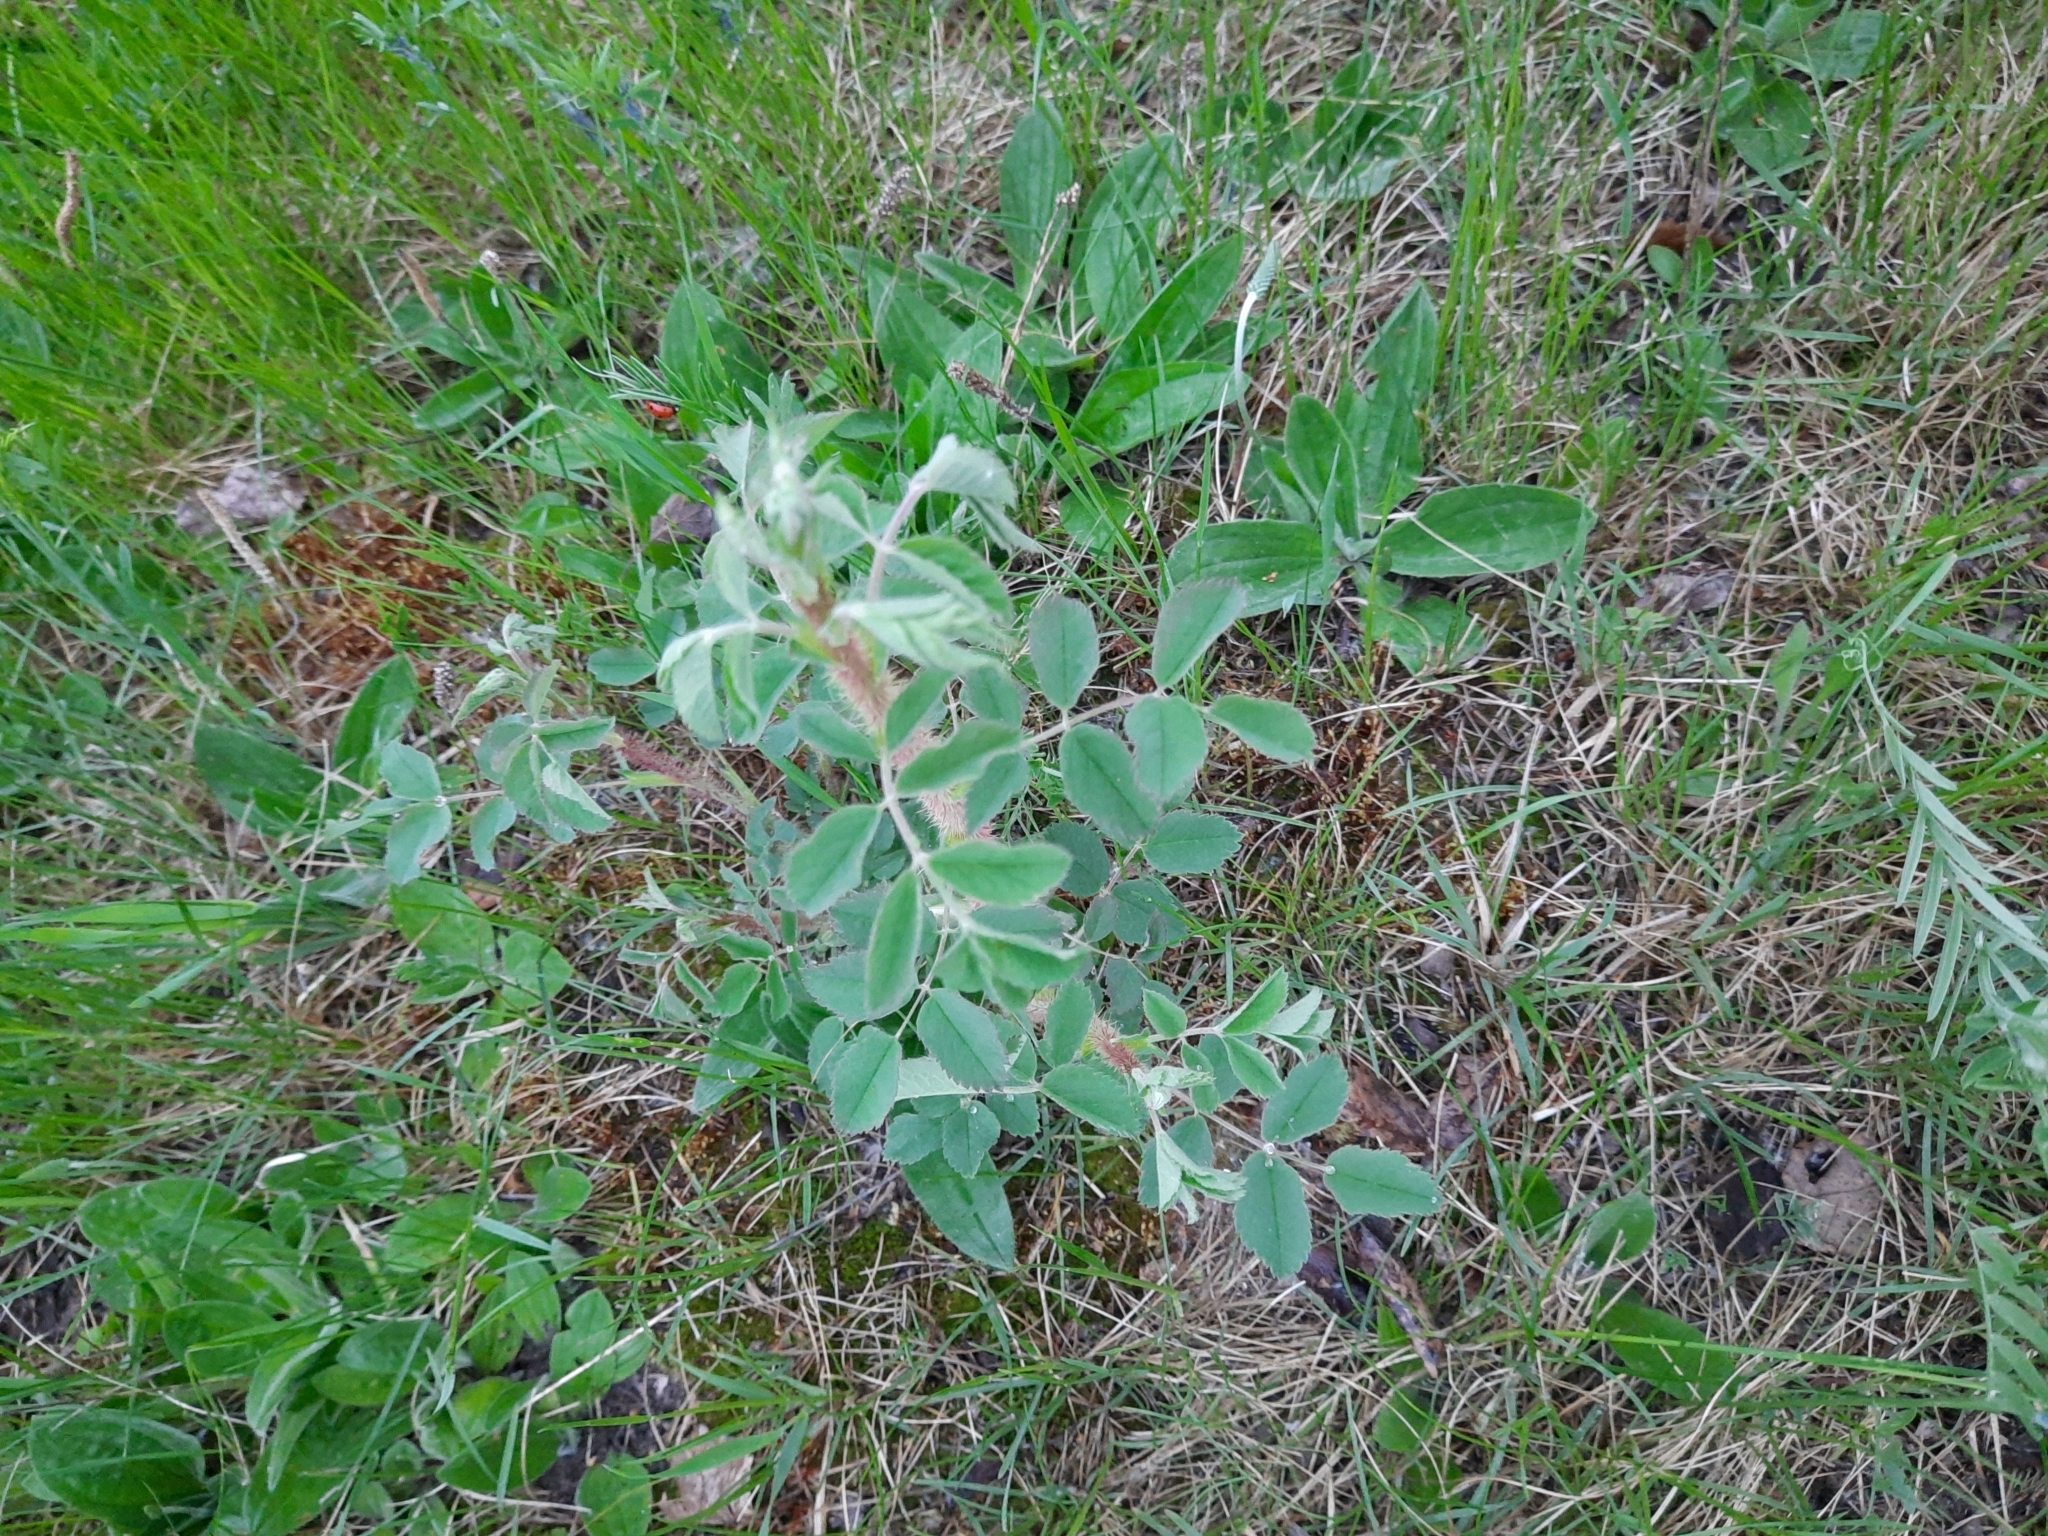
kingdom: Plantae
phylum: Tracheophyta
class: Magnoliopsida
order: Rosales
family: Rosaceae
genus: Rosa
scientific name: Rosa rugosa
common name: Japanese rose
